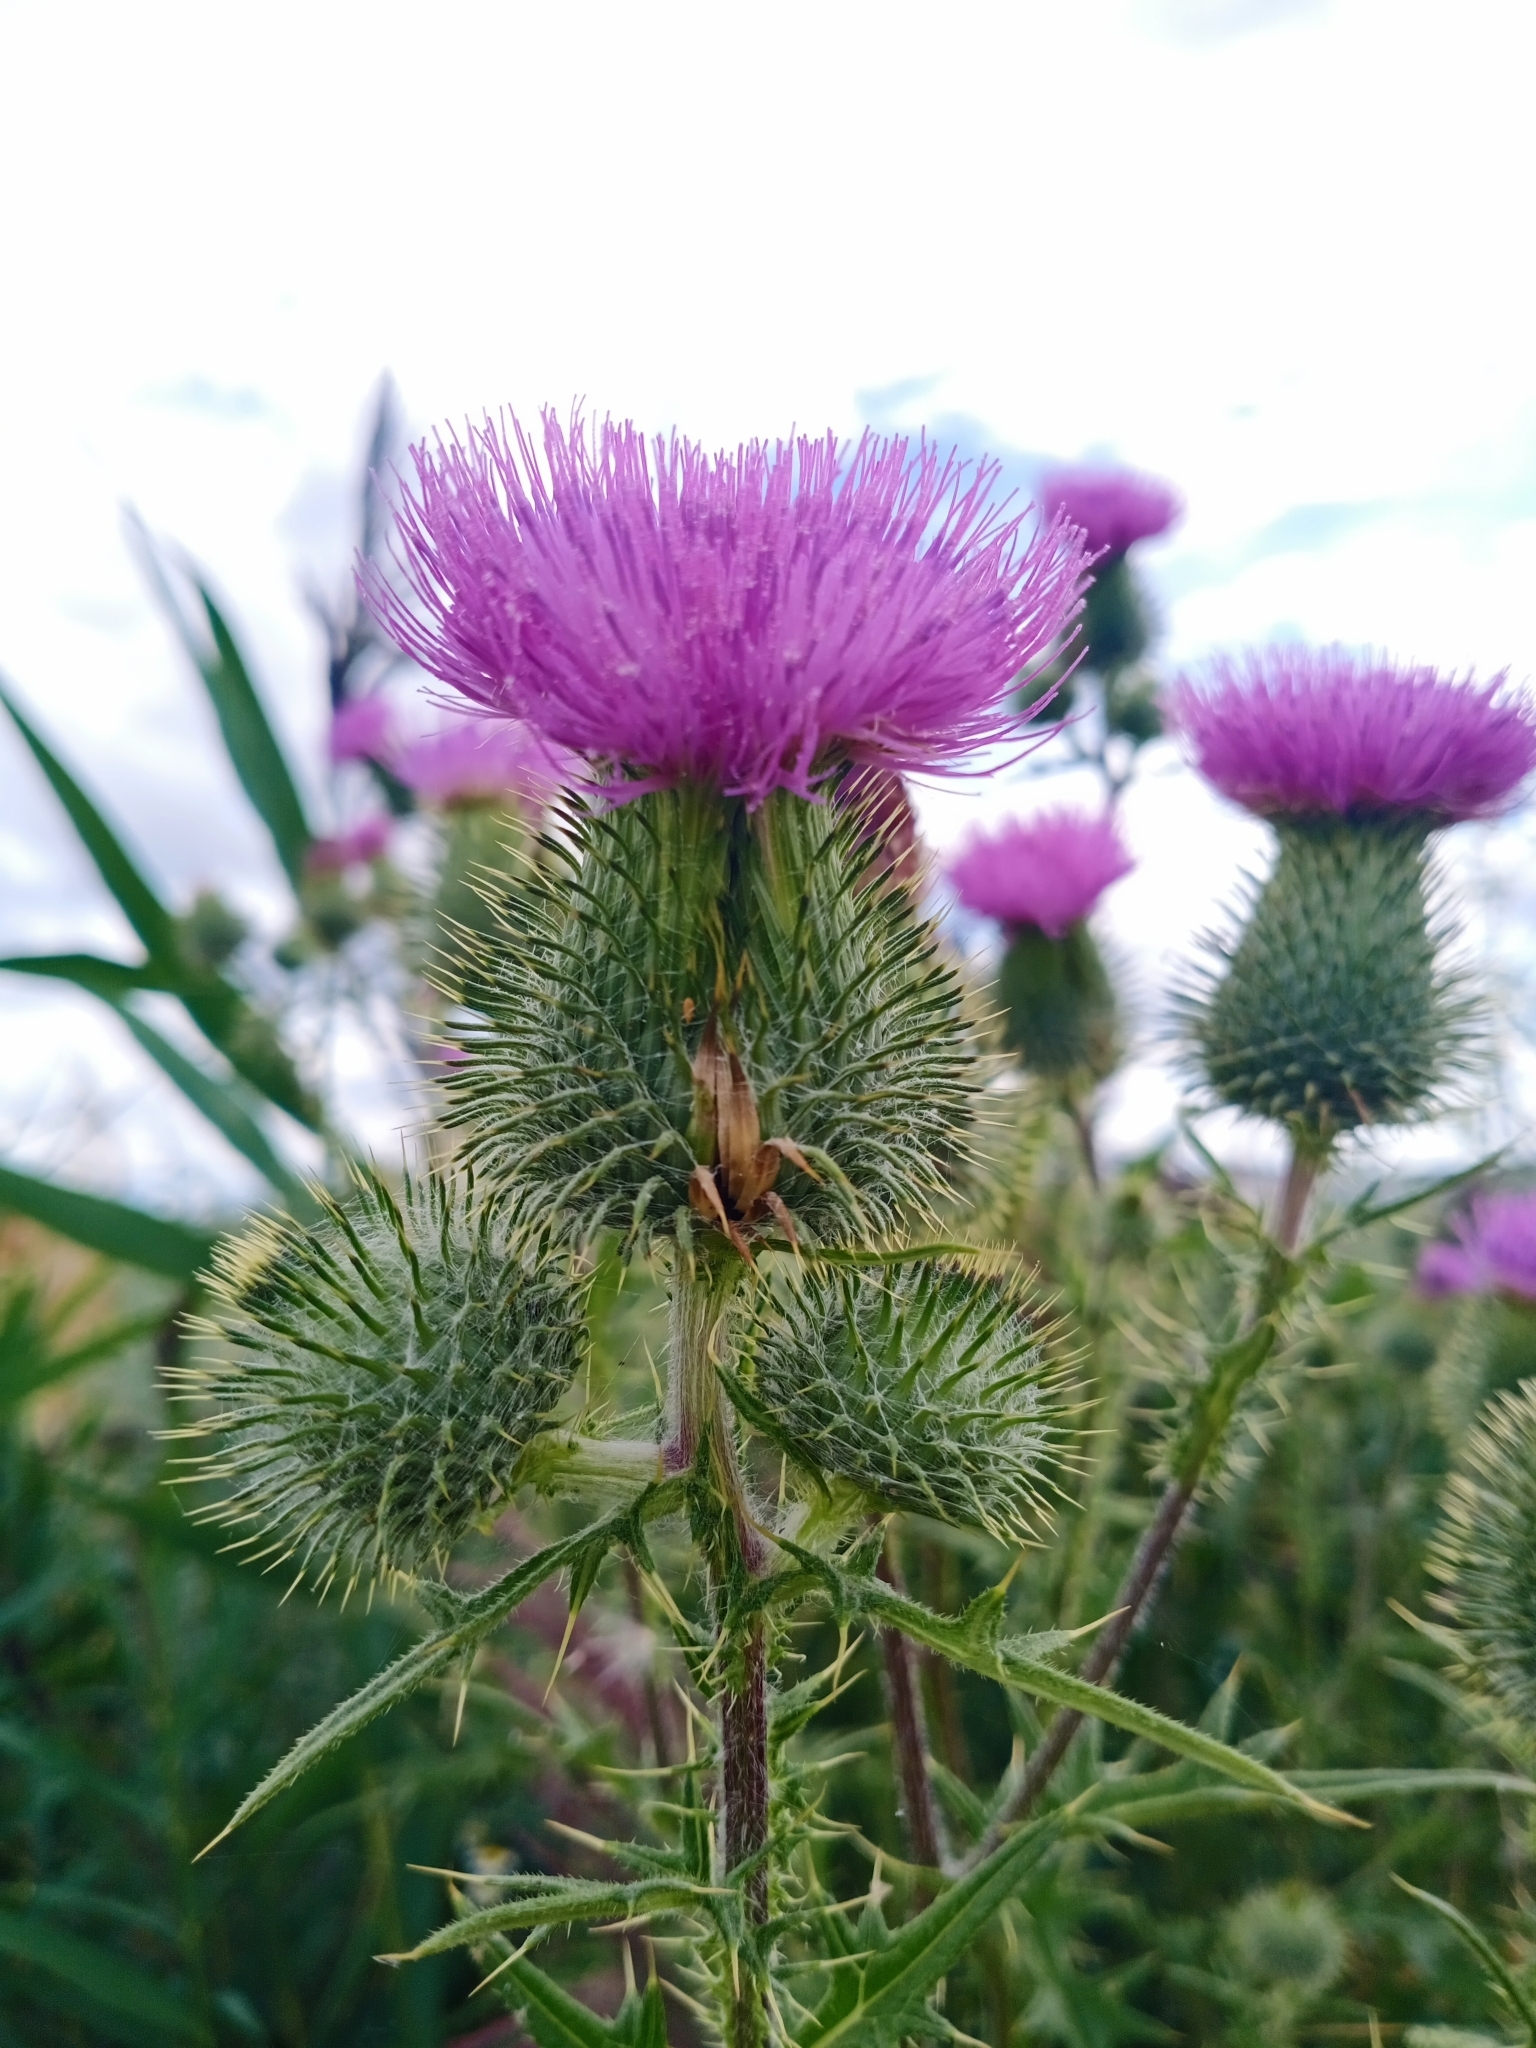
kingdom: Plantae
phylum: Tracheophyta
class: Magnoliopsida
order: Asterales
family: Asteraceae
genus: Cirsium
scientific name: Cirsium vulgare
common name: Bull thistle
